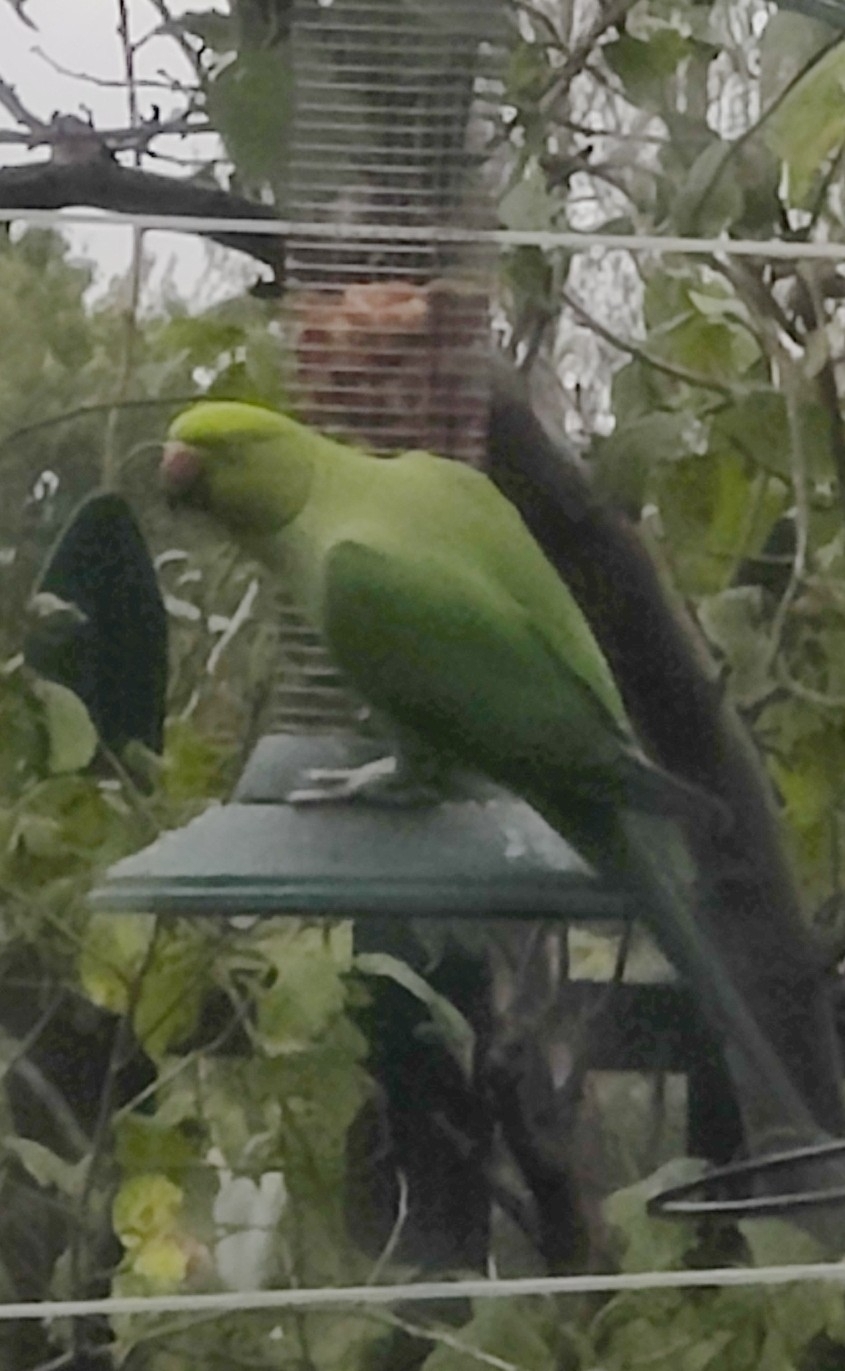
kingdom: Animalia
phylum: Chordata
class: Aves
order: Psittaciformes
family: Psittacidae
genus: Psittacula
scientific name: Psittacula krameri
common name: Rose-ringed parakeet
